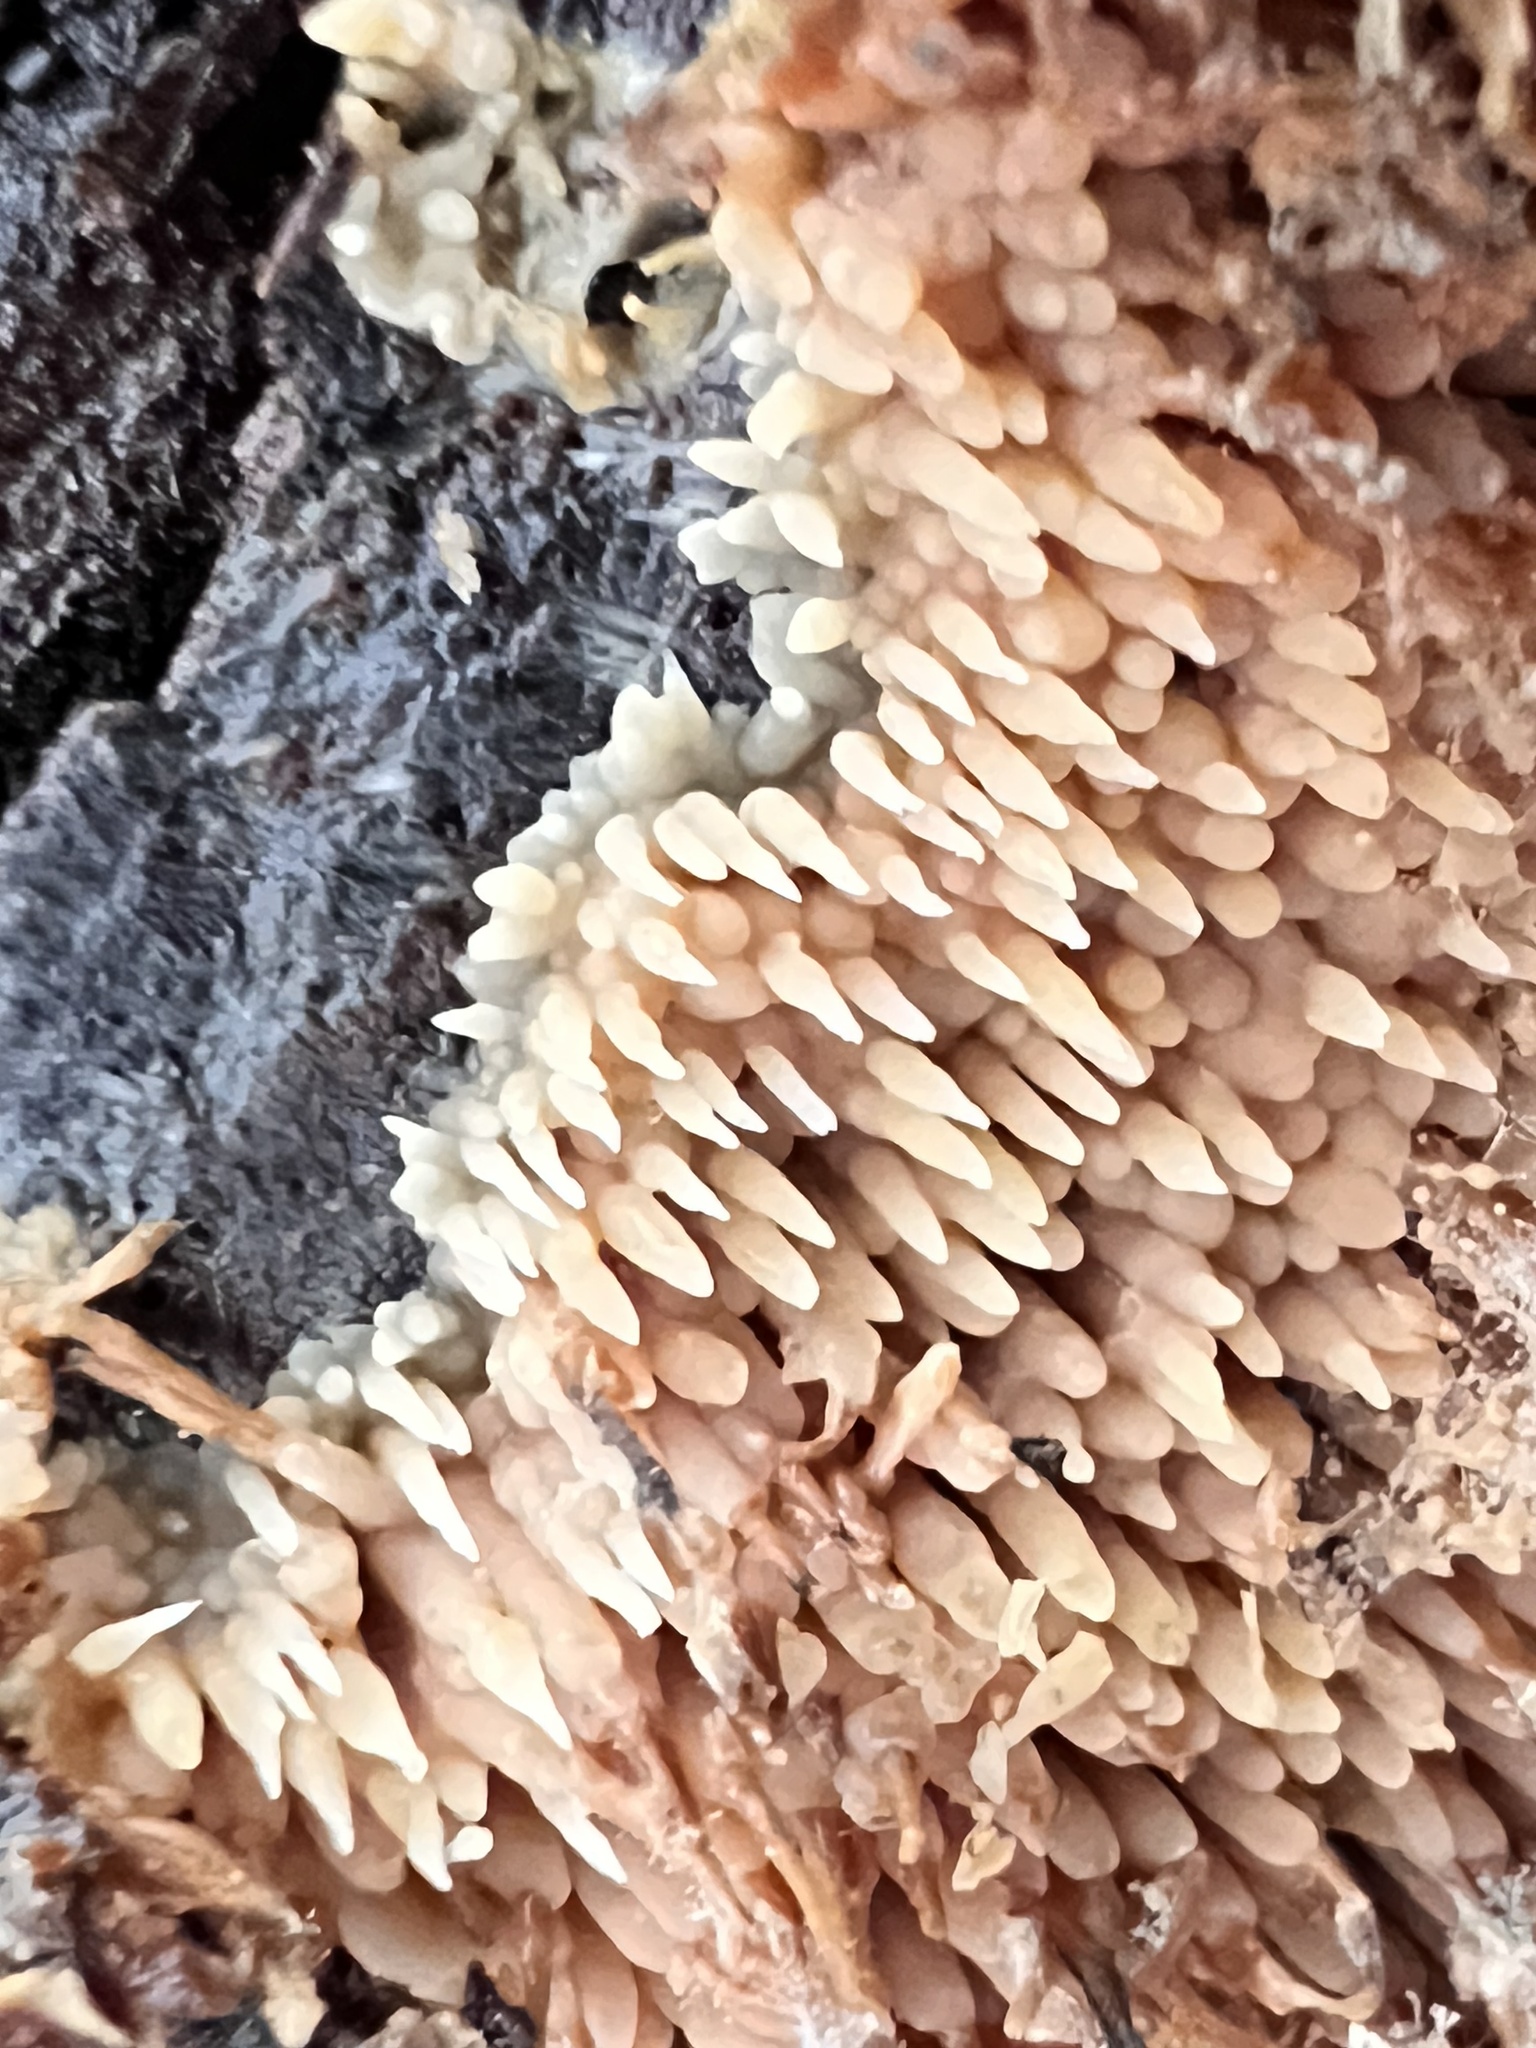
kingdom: Fungi
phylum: Basidiomycota
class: Agaricomycetes
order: Agaricales
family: Radulomycetaceae
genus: Radulomyces
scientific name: Radulomyces copelandii
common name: Asian beauty
